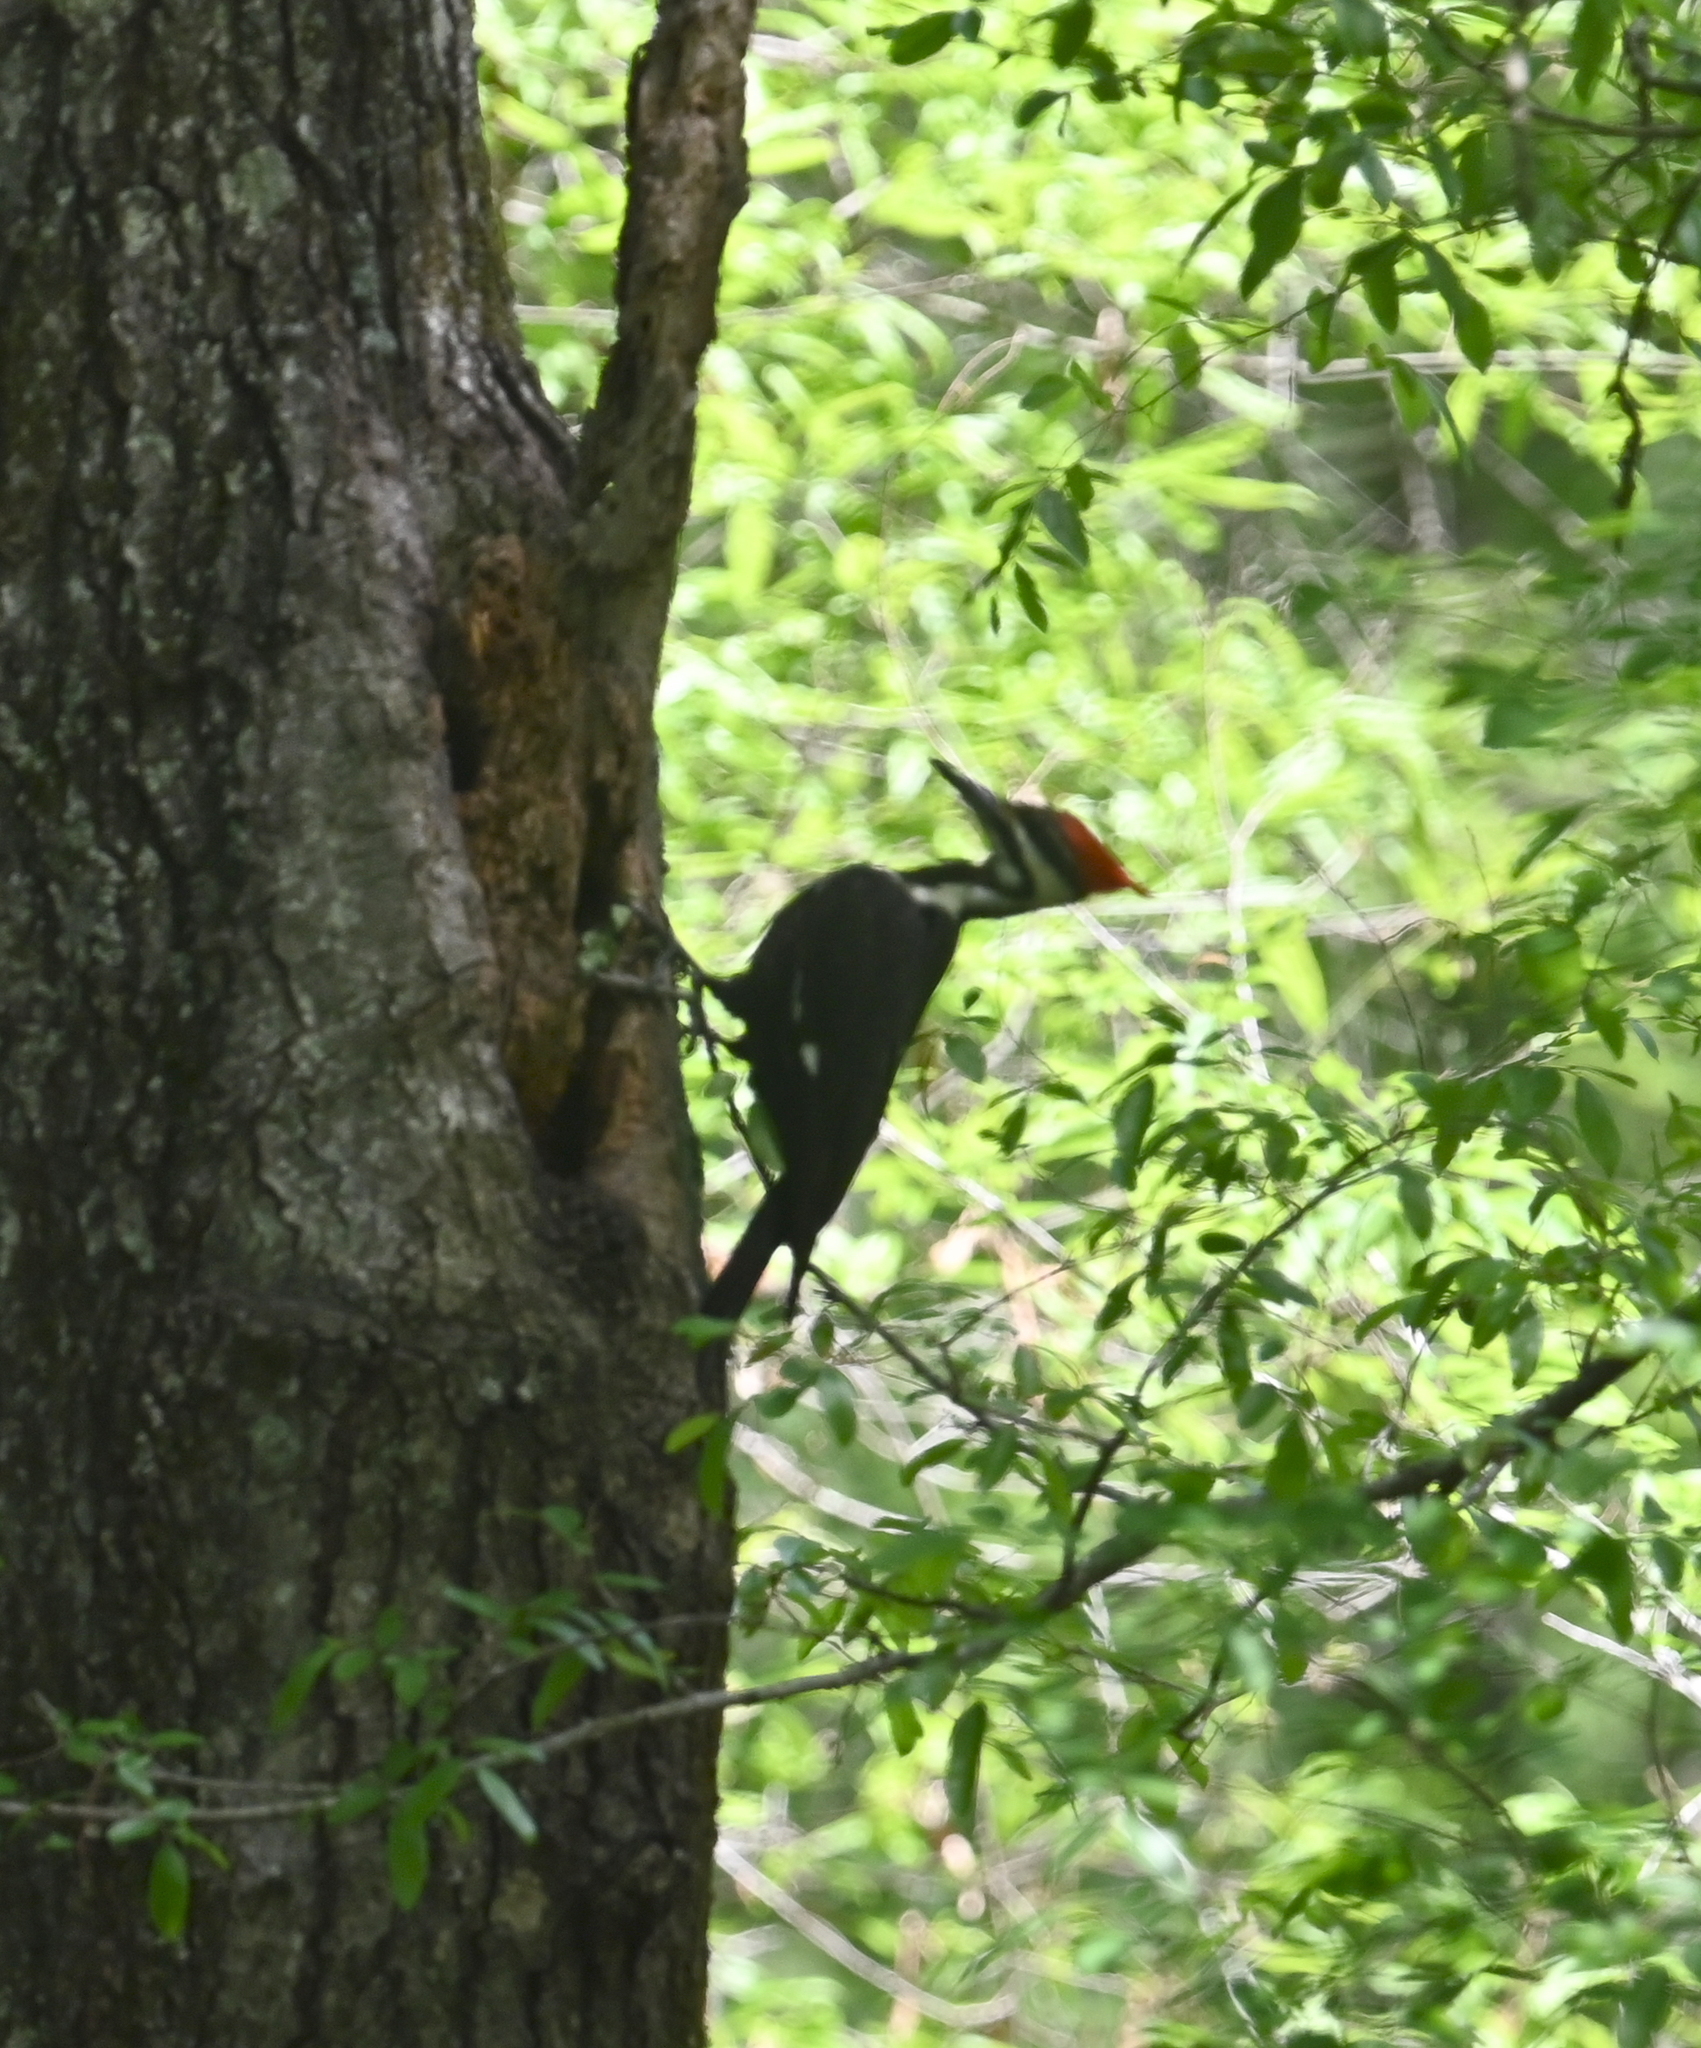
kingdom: Animalia
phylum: Chordata
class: Aves
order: Piciformes
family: Picidae
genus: Dryocopus
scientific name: Dryocopus pileatus
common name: Pileated woodpecker
